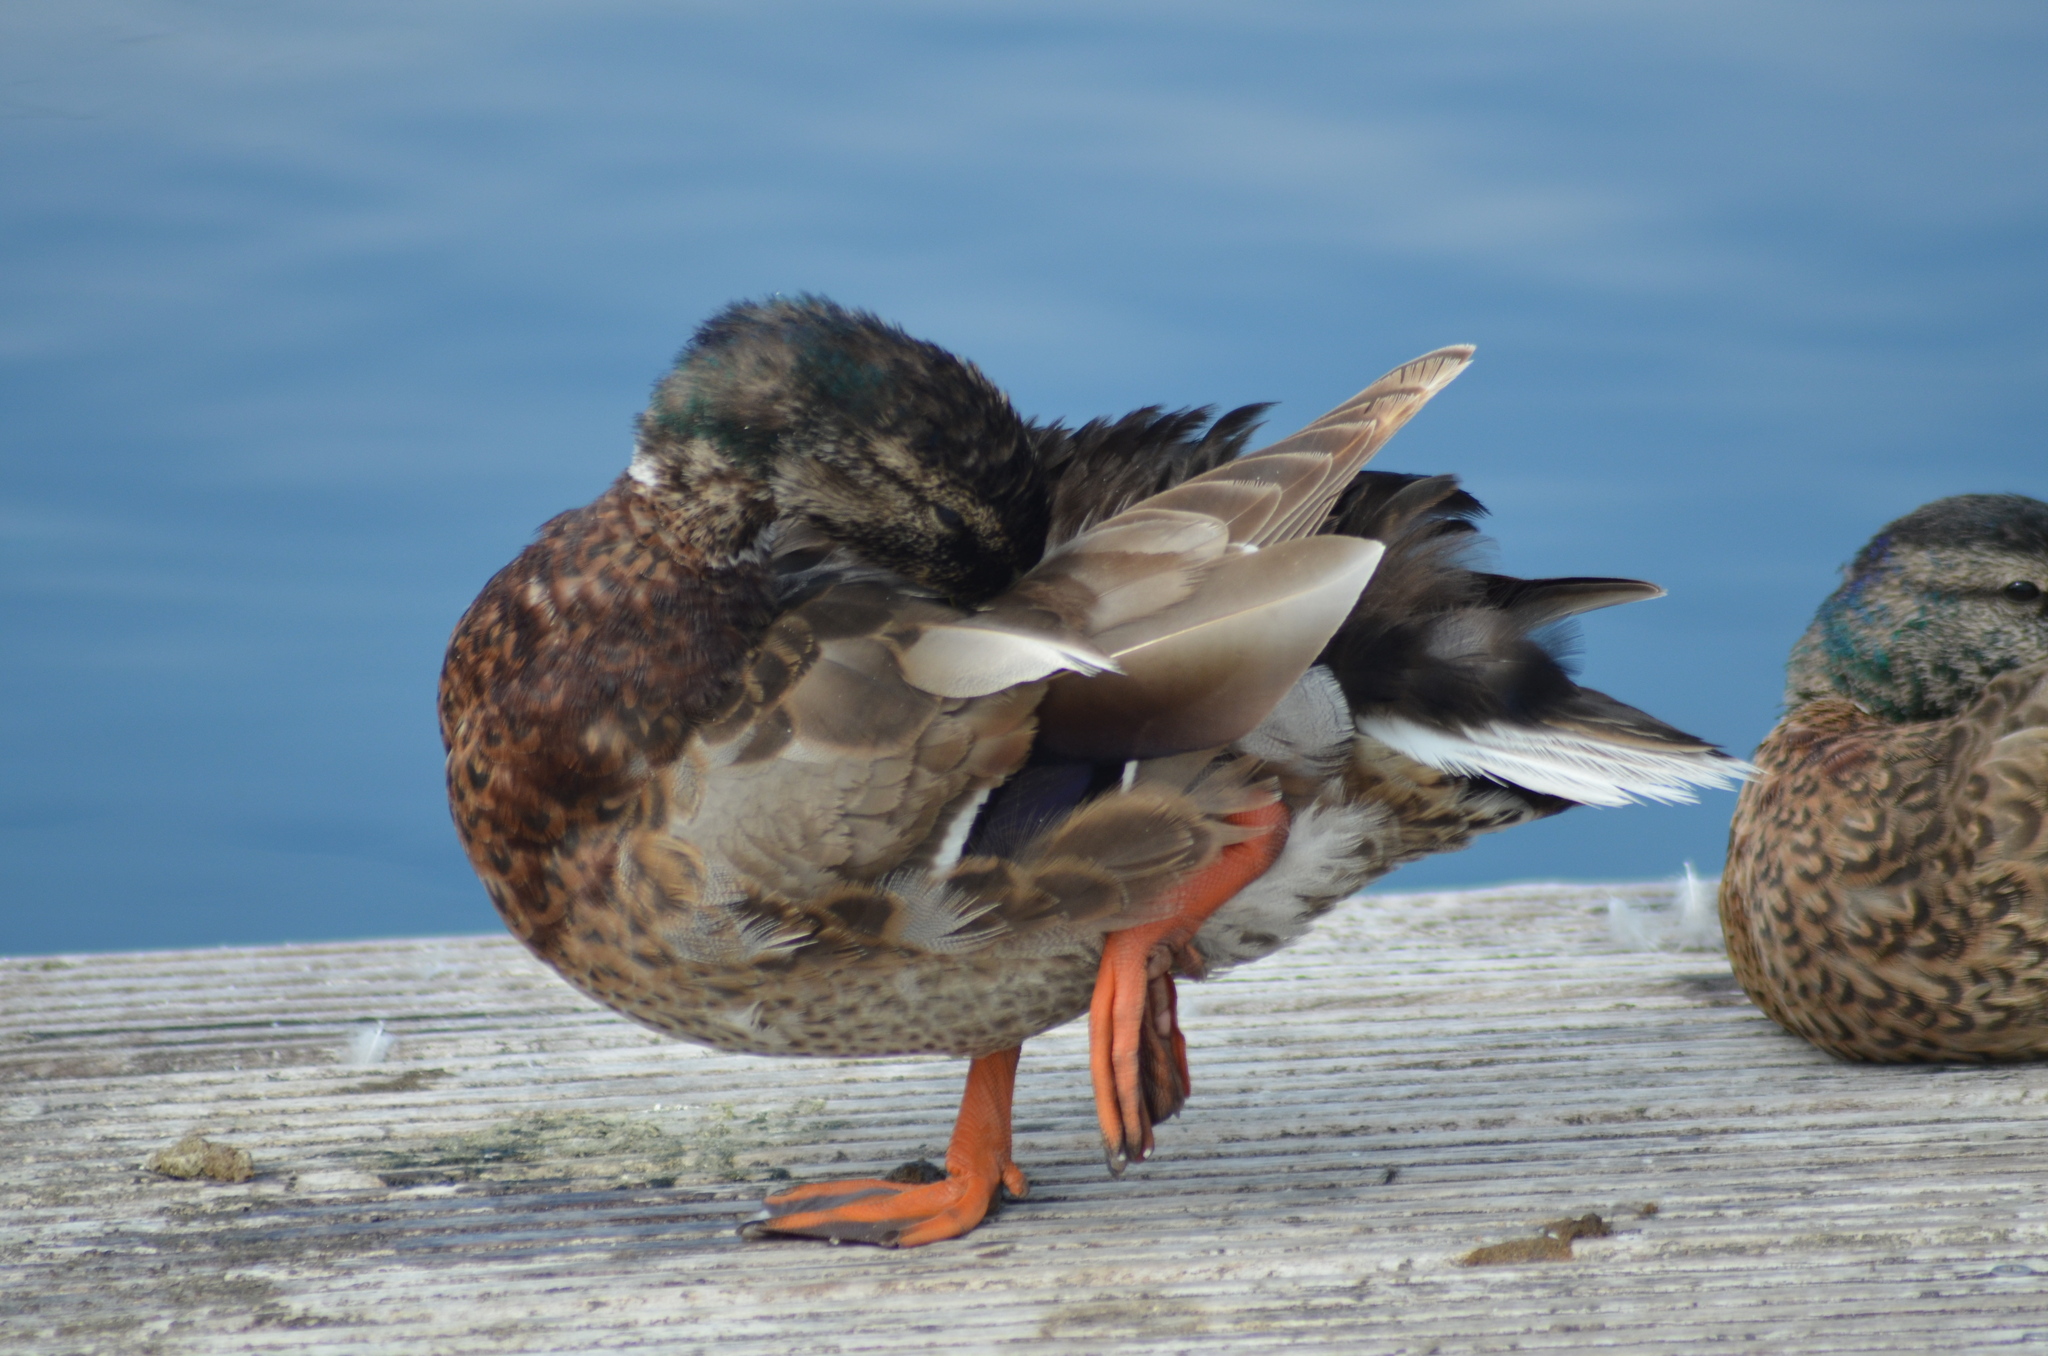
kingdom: Animalia
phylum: Chordata
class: Aves
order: Anseriformes
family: Anatidae
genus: Anas
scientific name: Anas platyrhynchos
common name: Mallard
